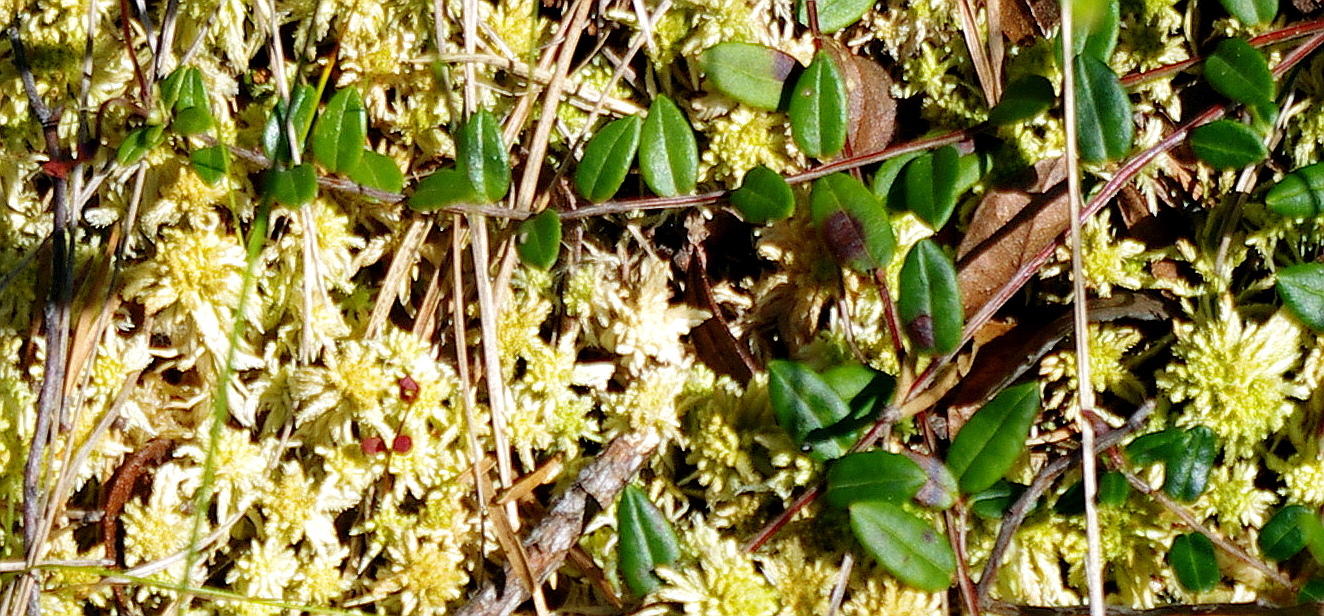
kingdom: Plantae
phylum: Tracheophyta
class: Magnoliopsida
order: Ericales
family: Ericaceae
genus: Vaccinium
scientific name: Vaccinium oxycoccos
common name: Cranberry
